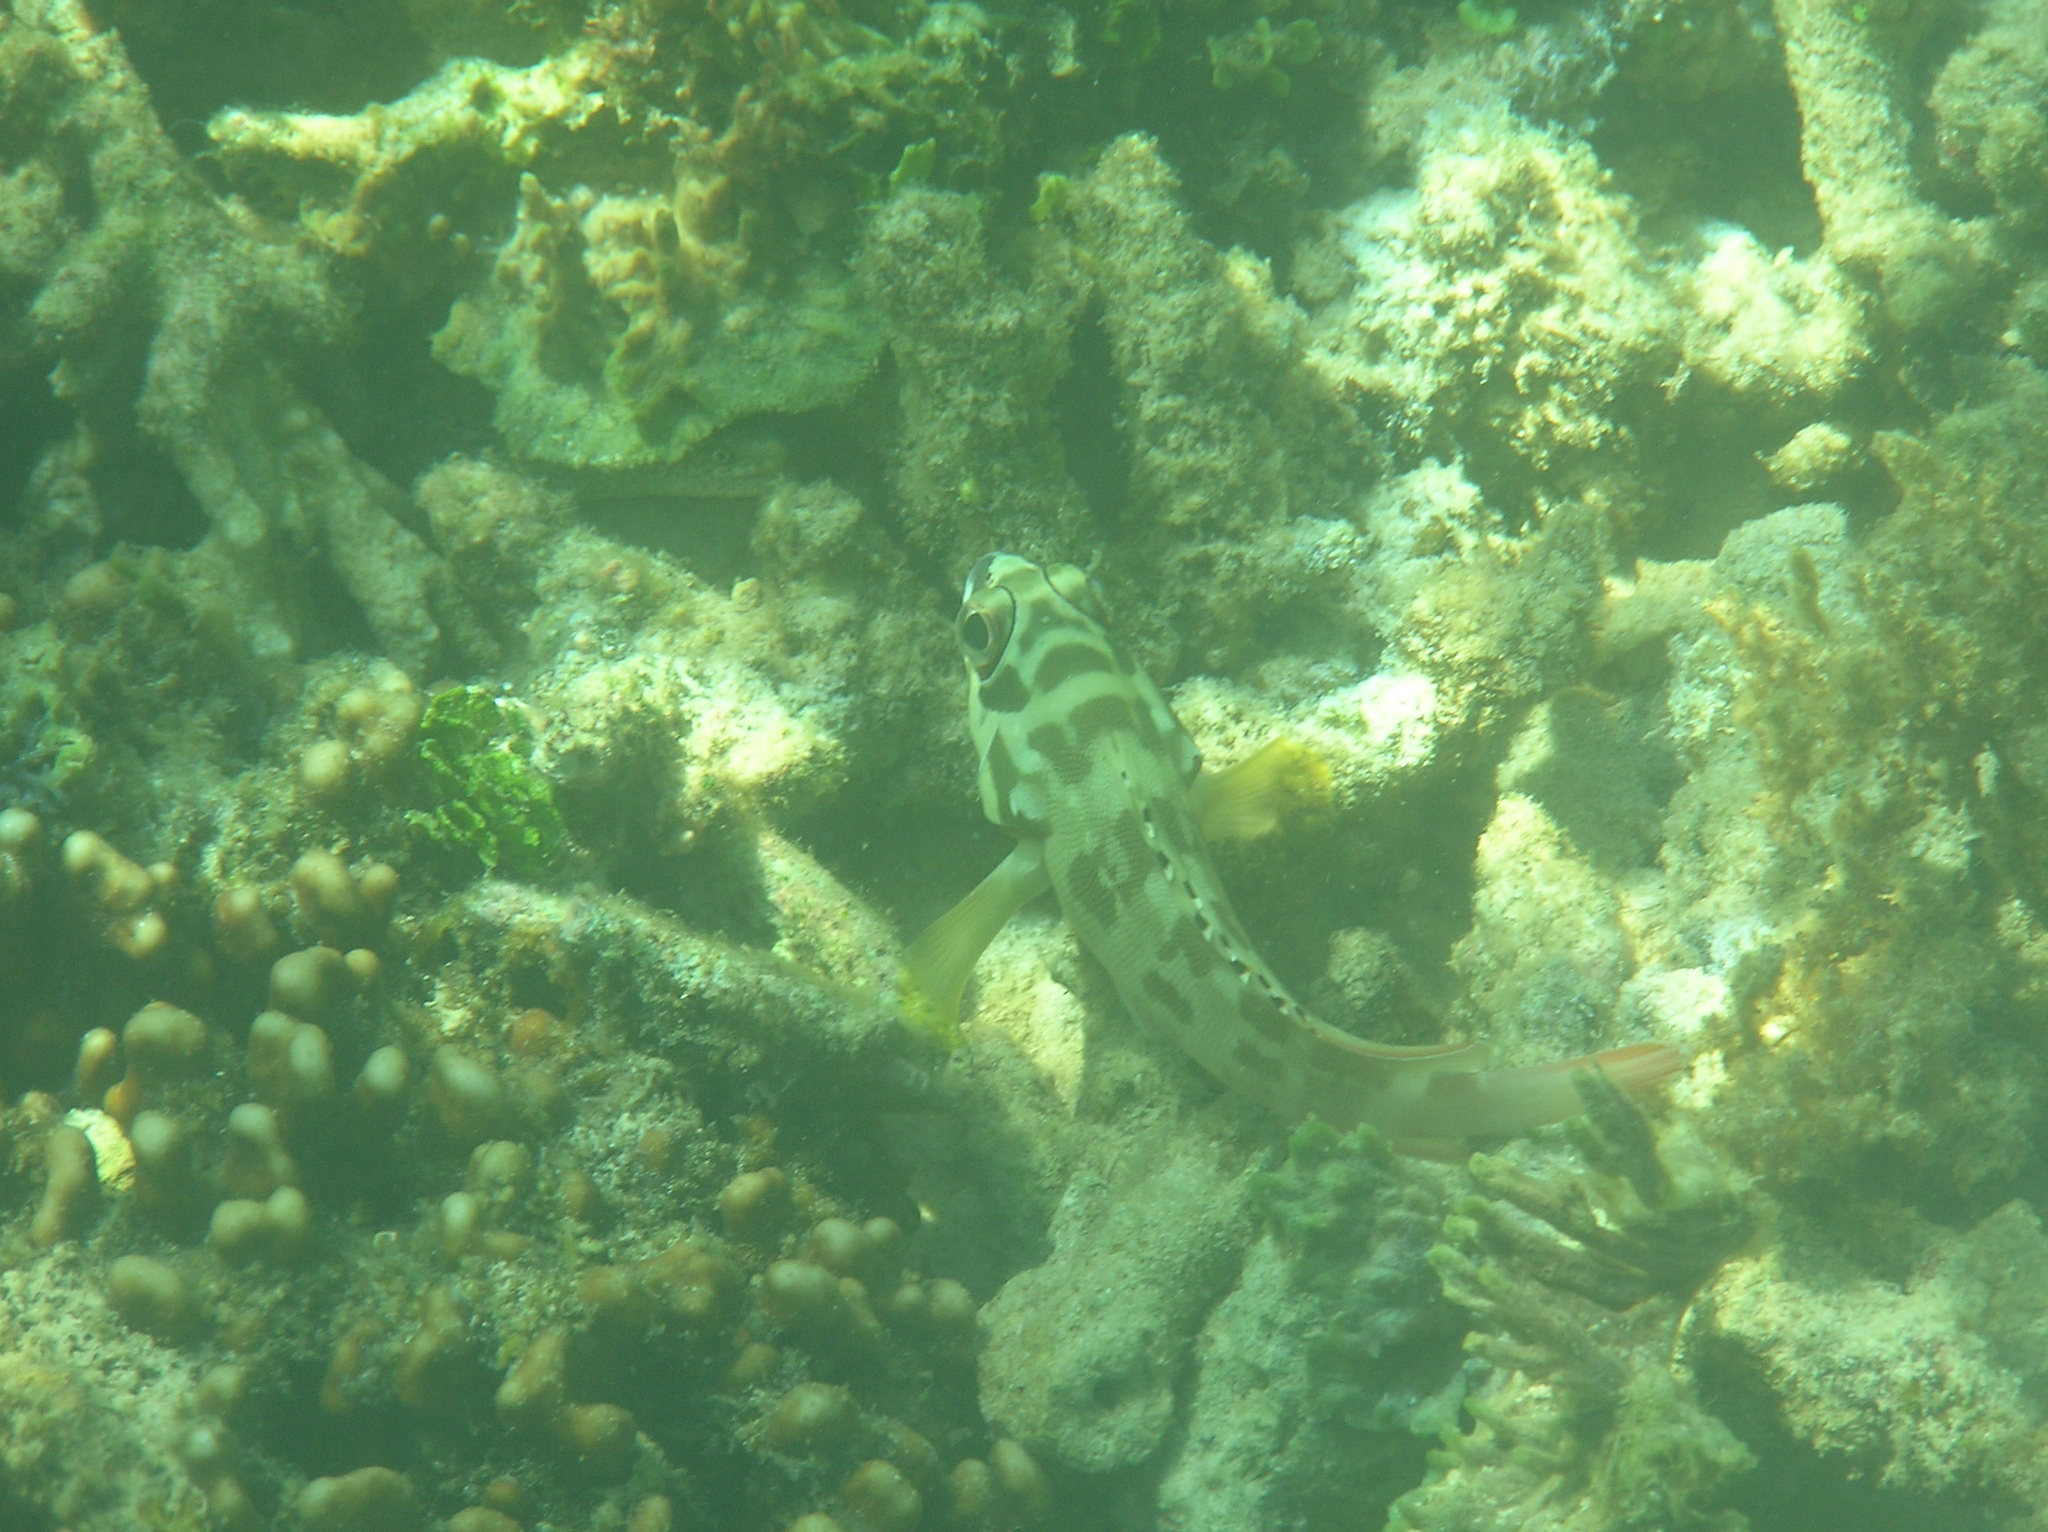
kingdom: Animalia
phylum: Chordata
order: Perciformes
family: Serranidae
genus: Epinephelus
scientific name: Epinephelus fasciatus
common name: Blacktip grouper
